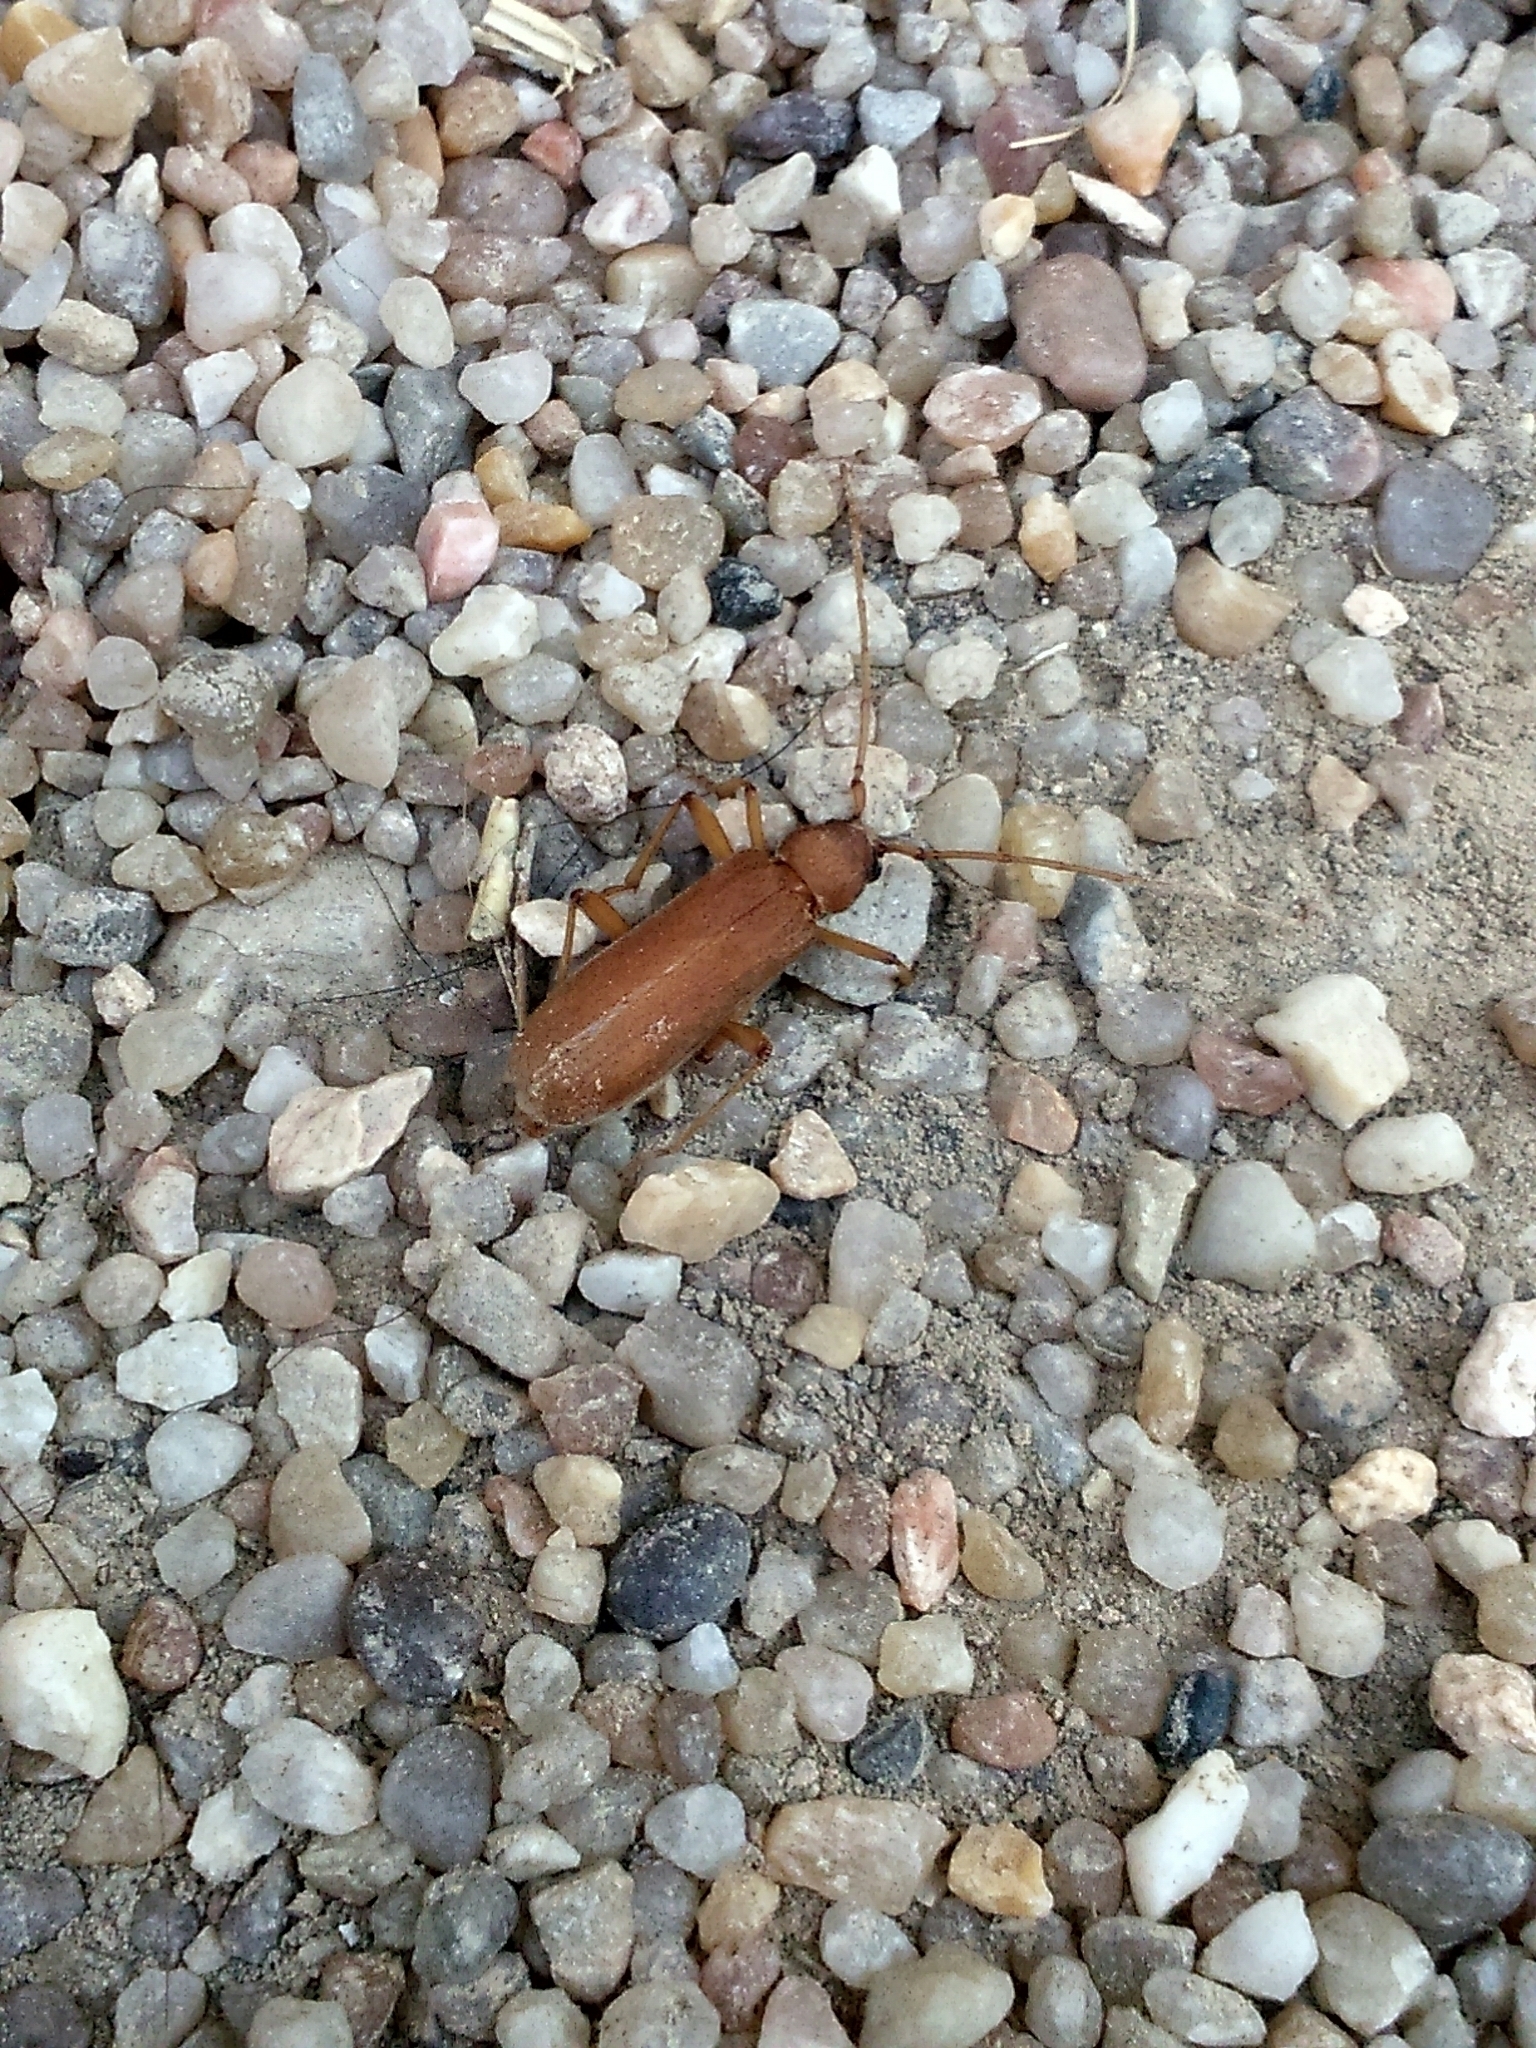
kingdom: Animalia
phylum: Arthropoda
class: Insecta
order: Coleoptera
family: Cerambycidae
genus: Stromatium
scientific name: Stromatium auratum
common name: Long-horned beetle
